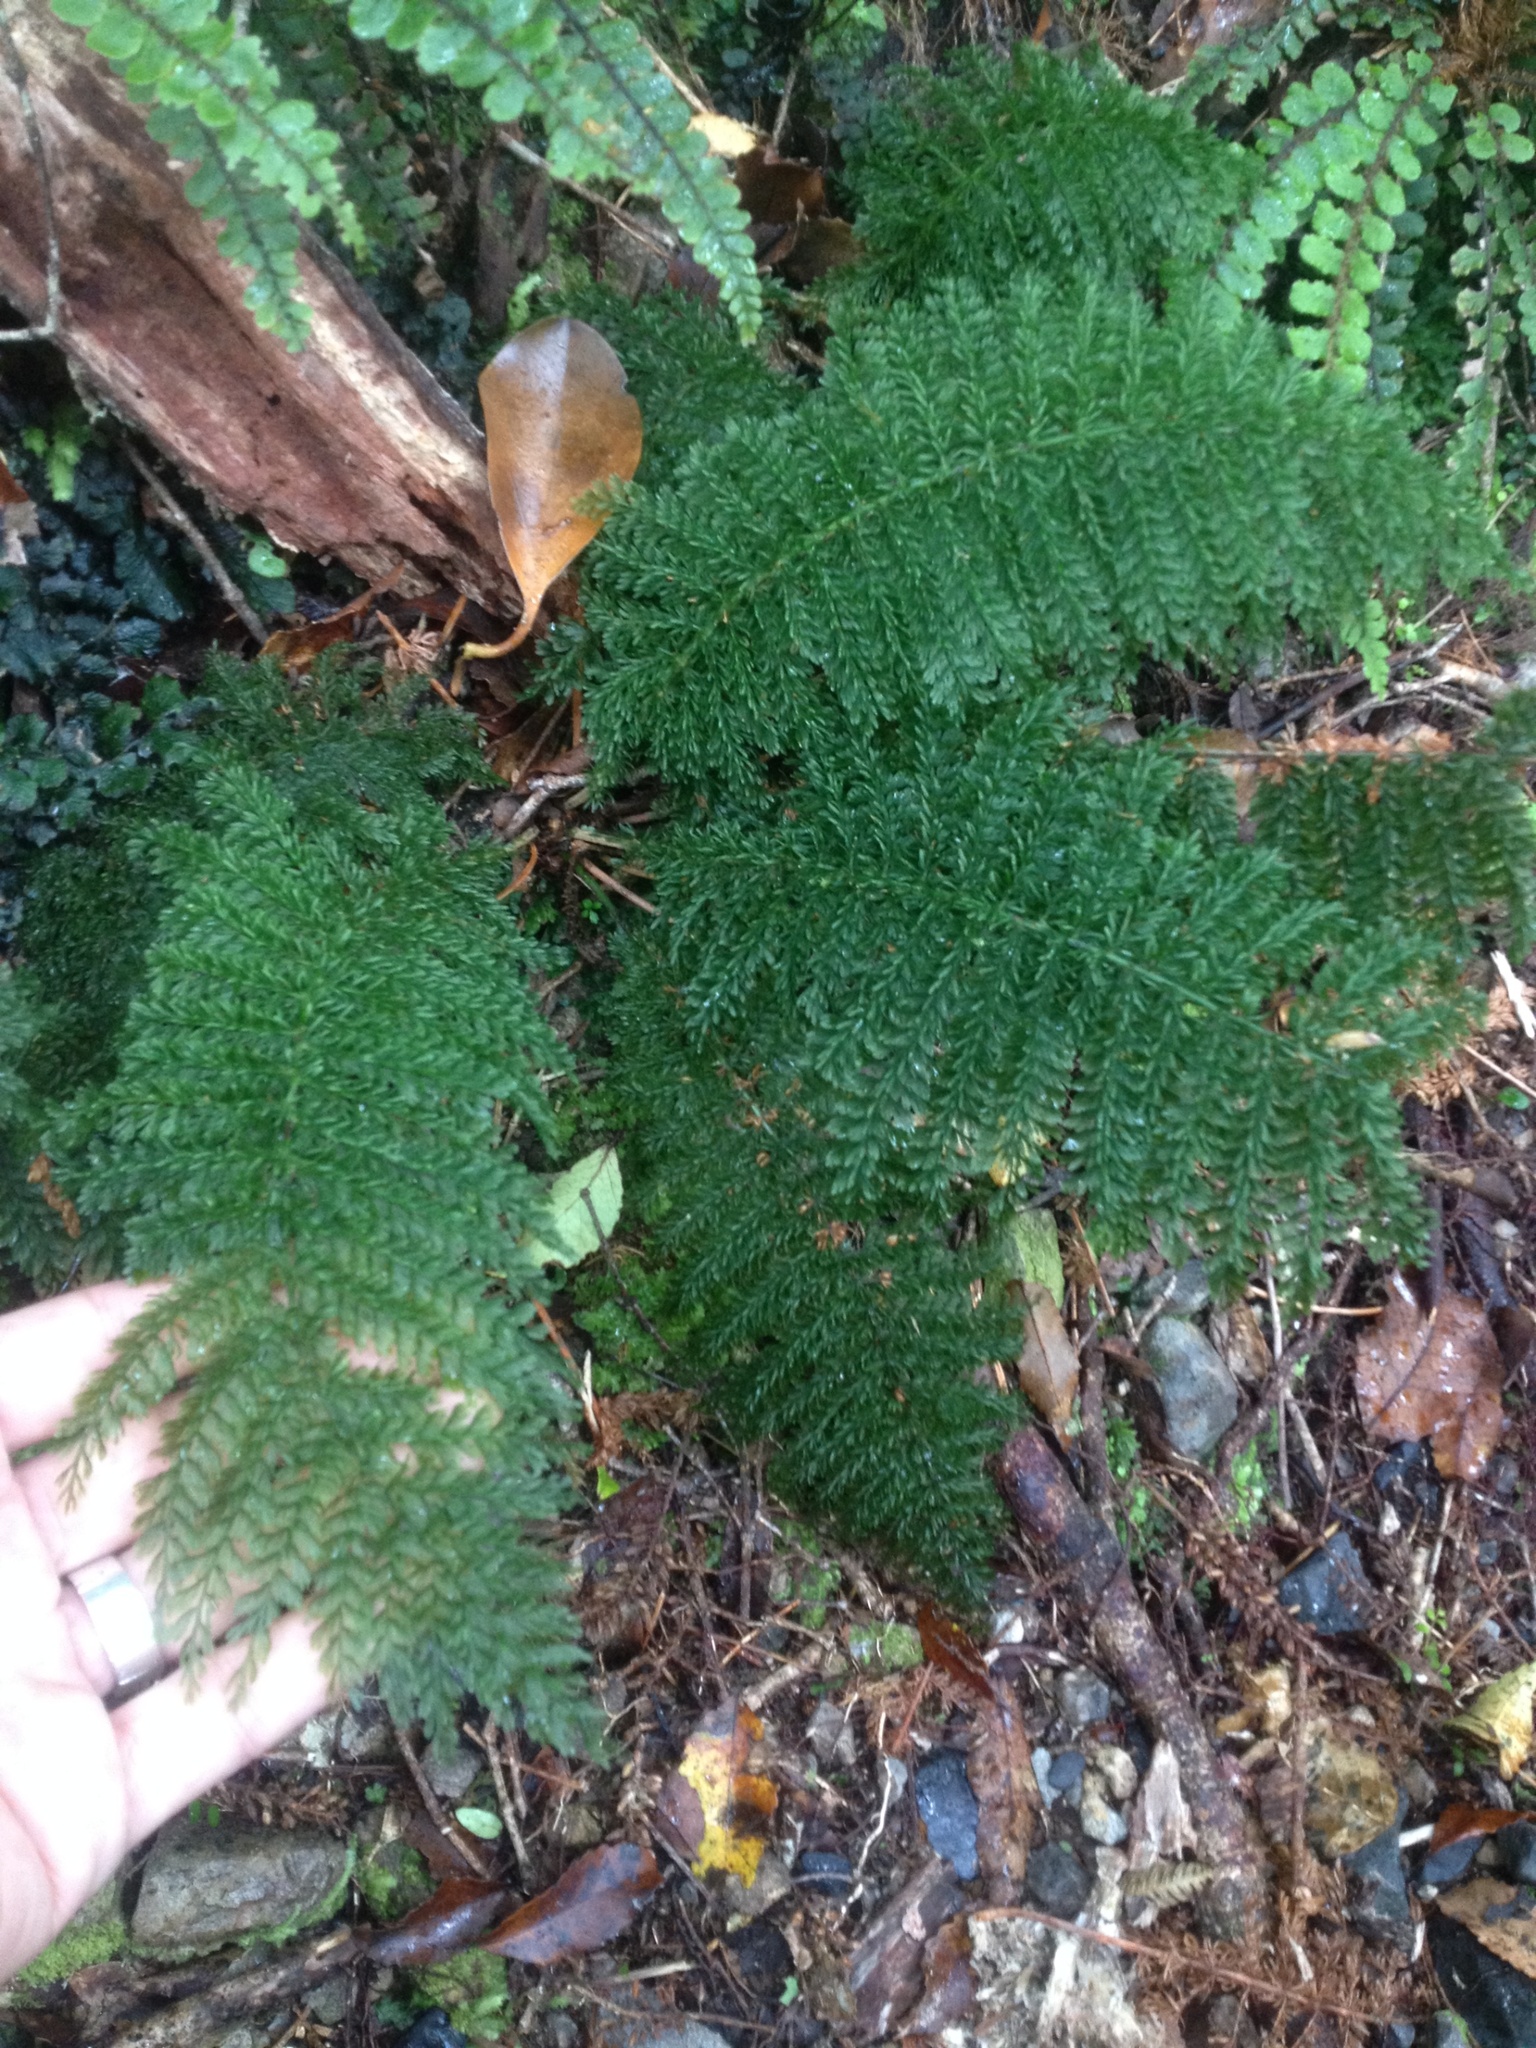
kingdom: Plantae
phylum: Tracheophyta
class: Polypodiopsida
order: Osmundales
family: Osmundaceae
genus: Leptopteris
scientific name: Leptopteris superba
